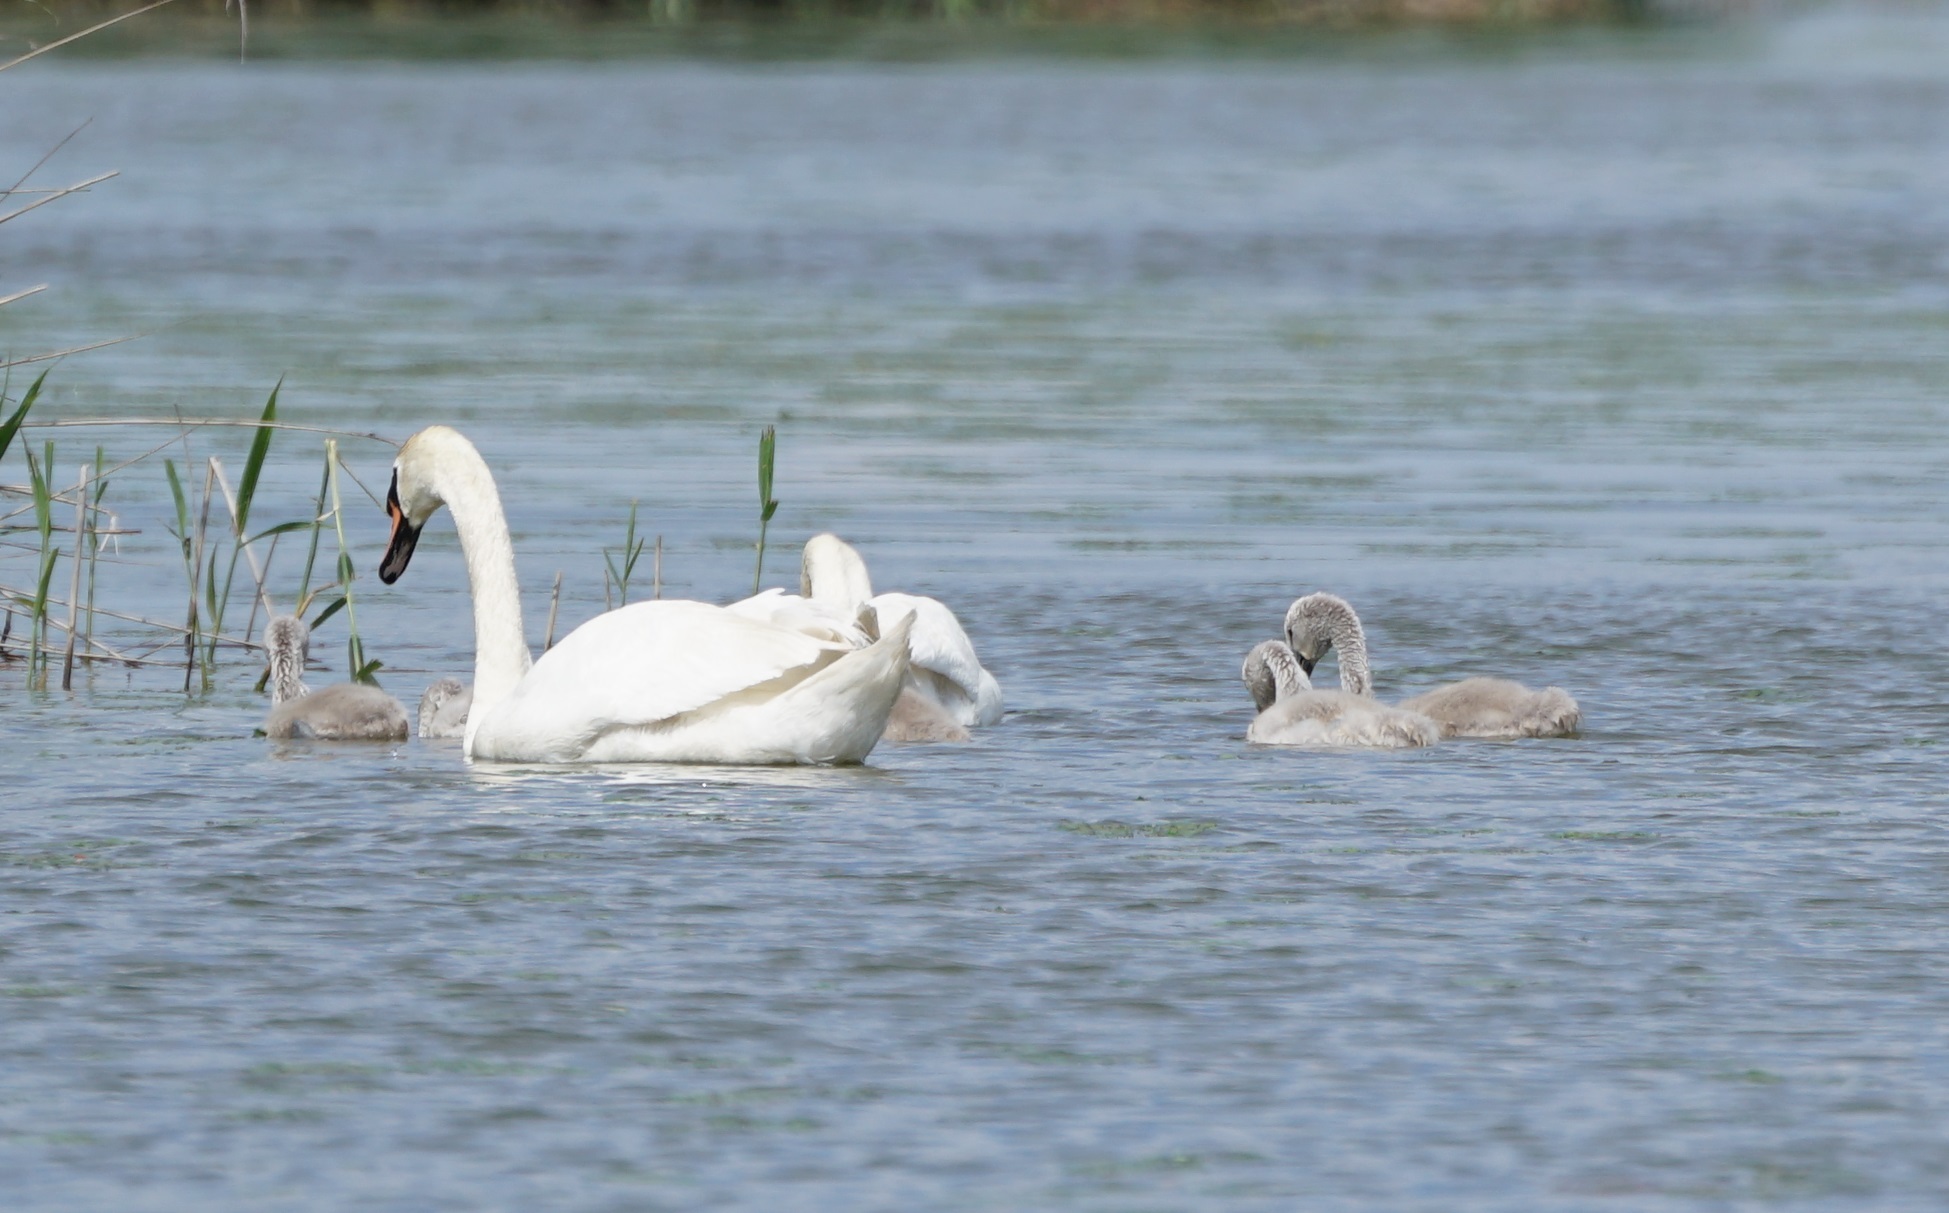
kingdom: Animalia
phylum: Chordata
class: Aves
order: Anseriformes
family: Anatidae
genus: Cygnus
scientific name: Cygnus olor
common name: Mute swan
